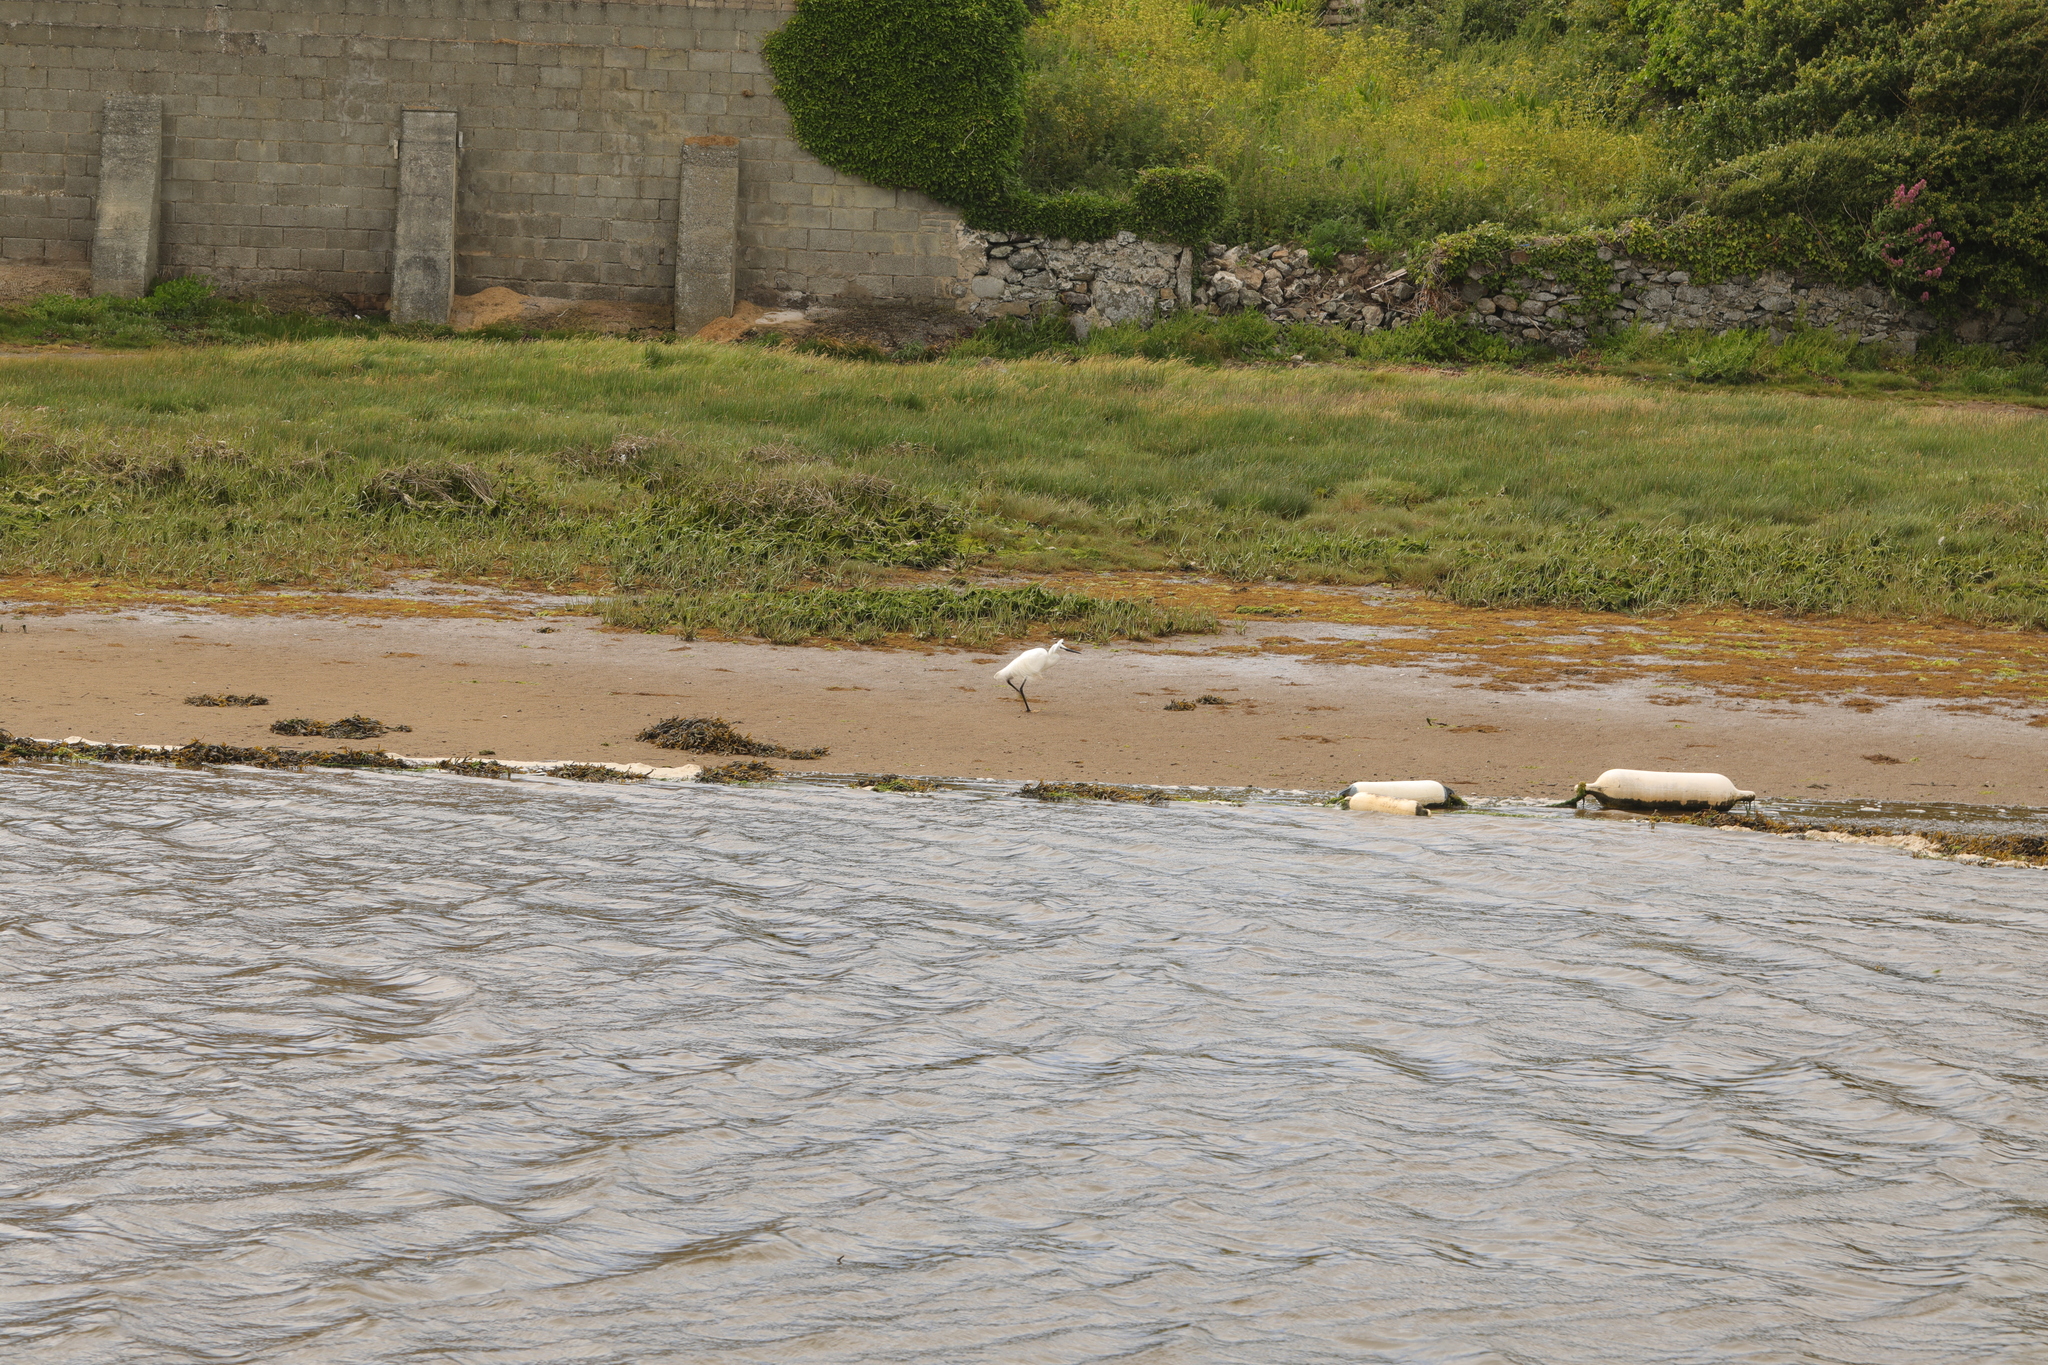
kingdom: Animalia
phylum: Chordata
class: Aves
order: Pelecaniformes
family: Ardeidae
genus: Egretta
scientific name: Egretta garzetta
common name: Little egret
